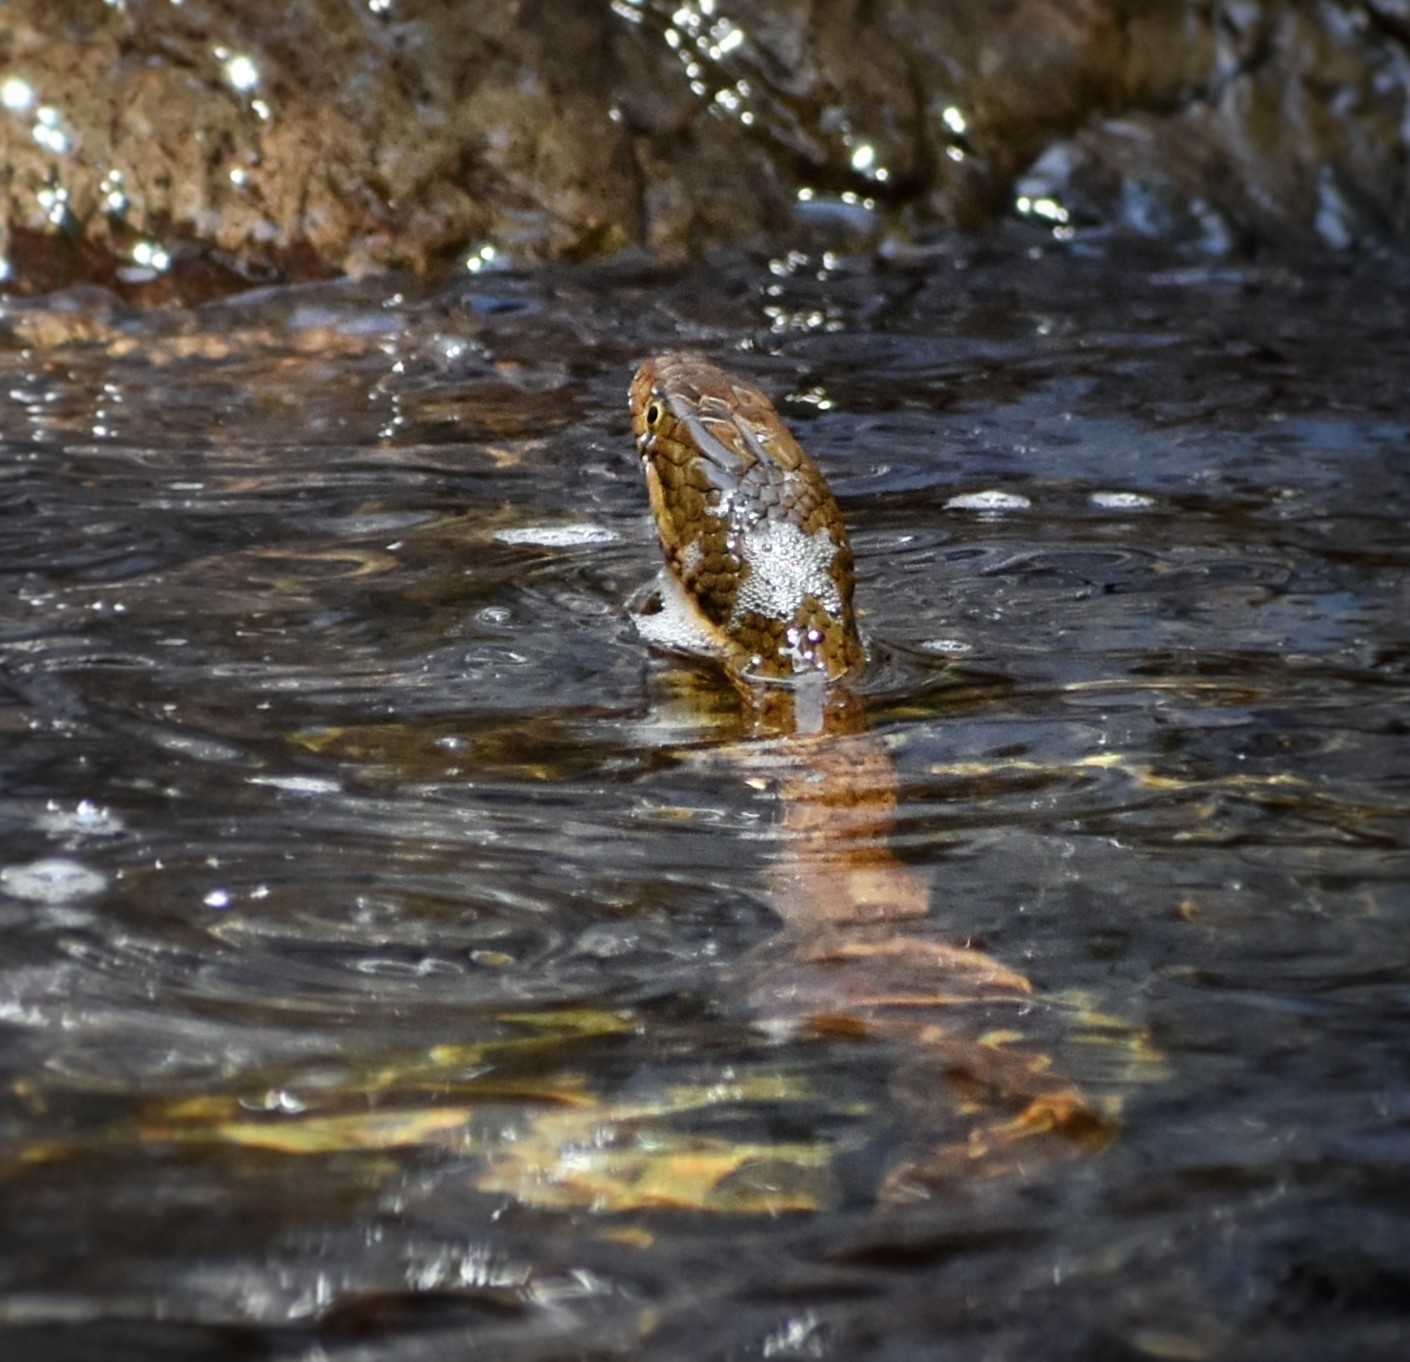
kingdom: Animalia
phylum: Chordata
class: Squamata
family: Colubridae
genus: Trimerodytes
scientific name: Trimerodytes percarinatus
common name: Eastern water snake
